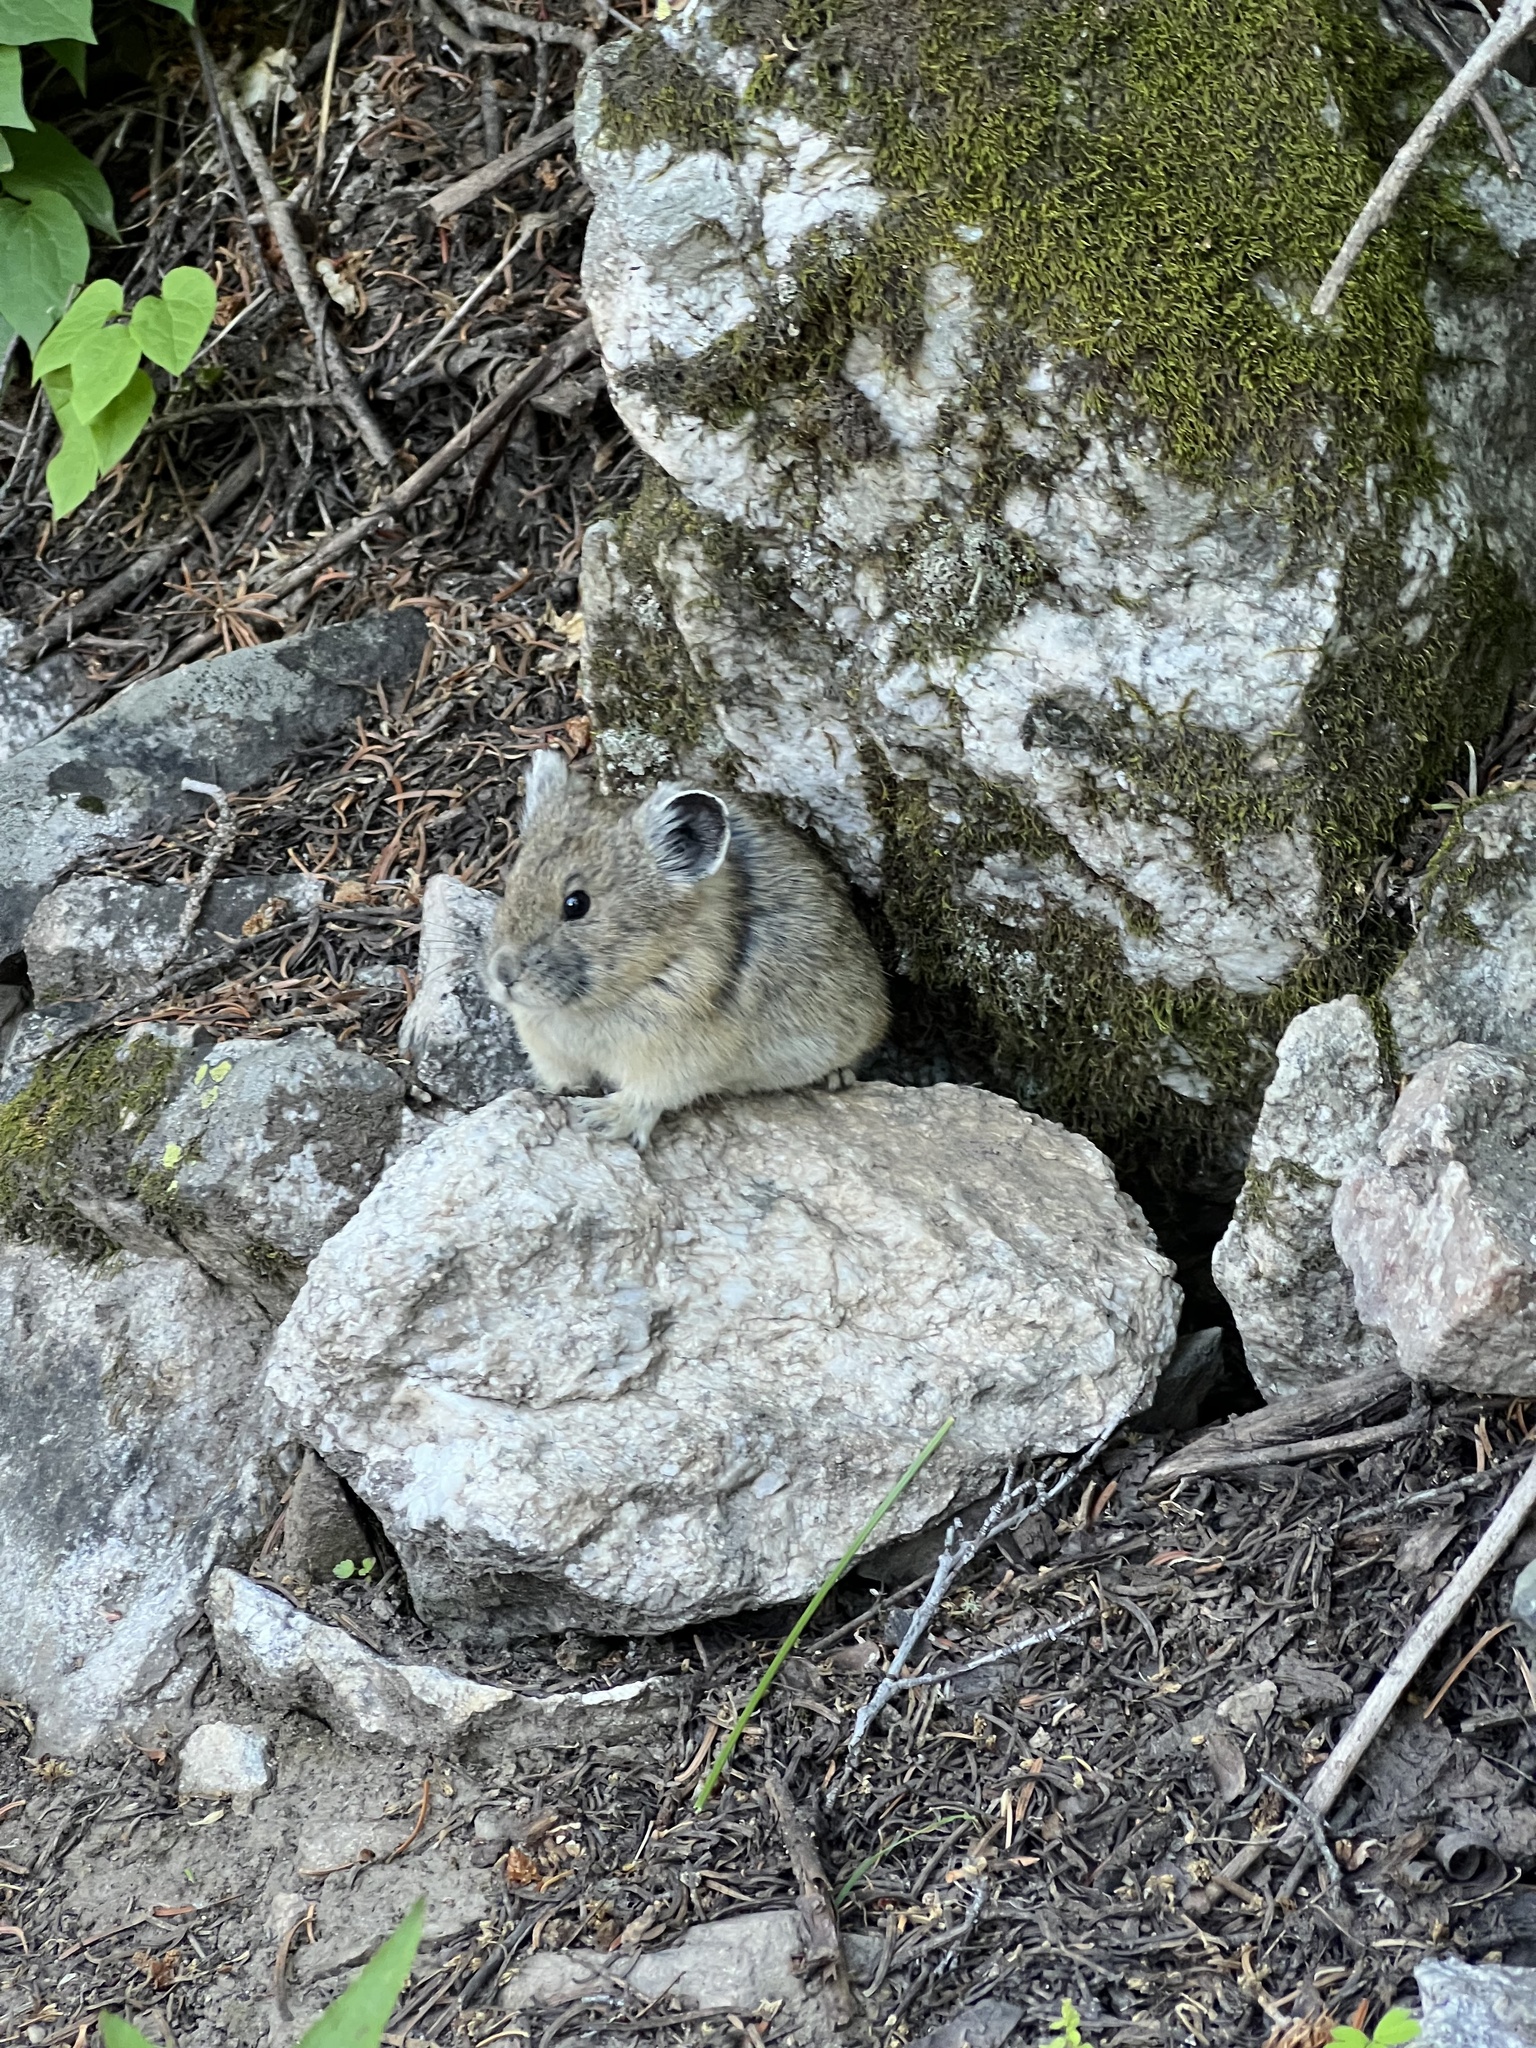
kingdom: Animalia
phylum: Chordata
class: Mammalia
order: Lagomorpha
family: Ochotonidae
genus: Ochotona
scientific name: Ochotona princeps
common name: American pika
